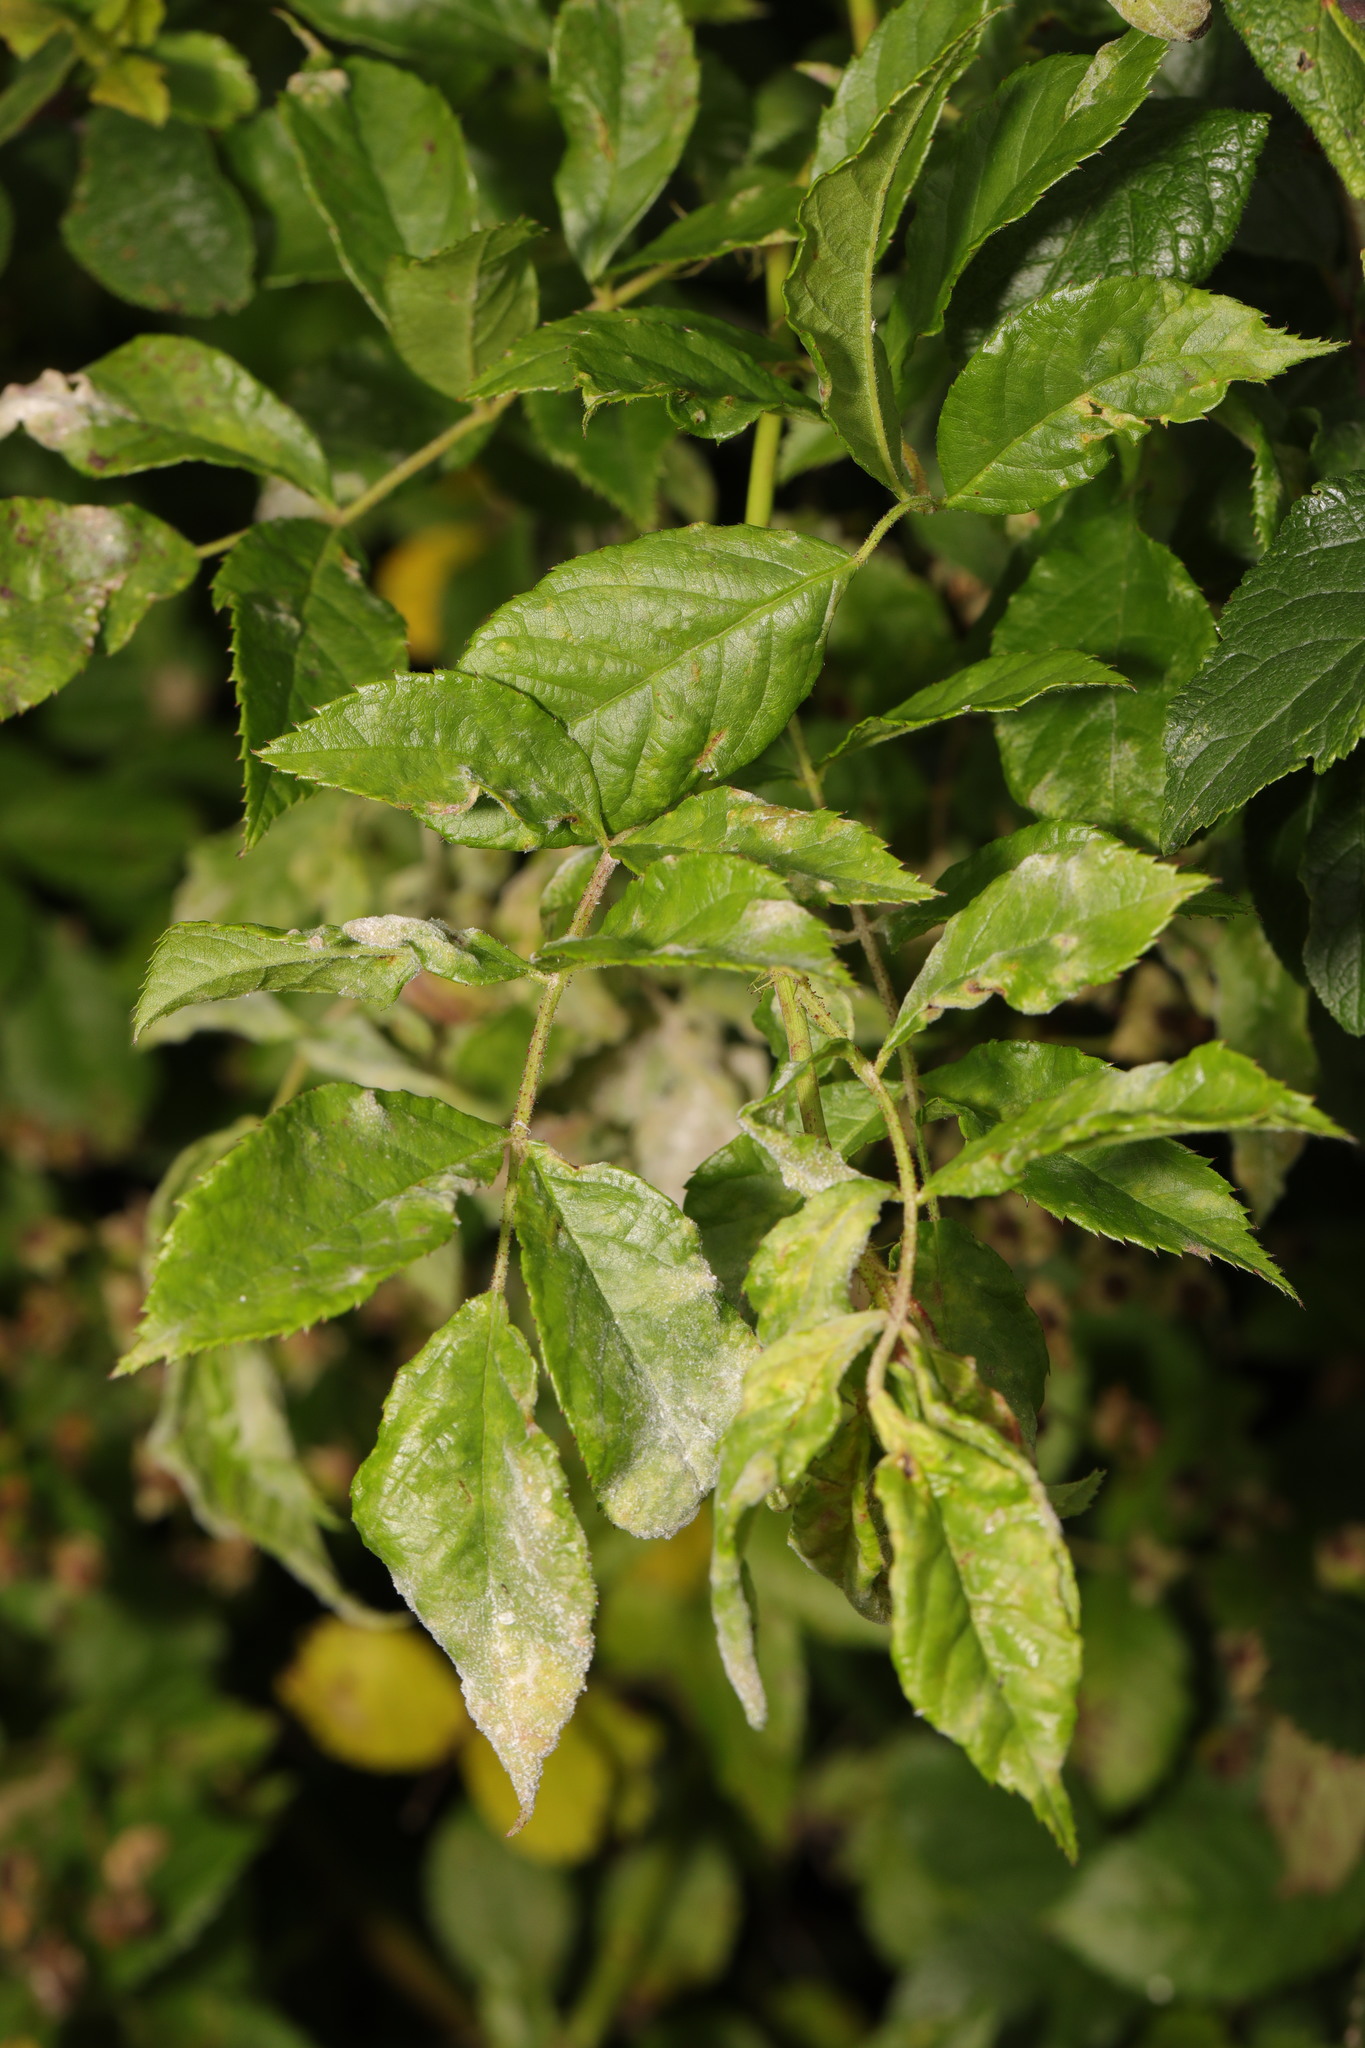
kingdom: Fungi
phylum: Ascomycota
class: Leotiomycetes
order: Helotiales
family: Erysiphaceae
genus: Podosphaera
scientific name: Podosphaera pannosa
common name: Rose mildew
